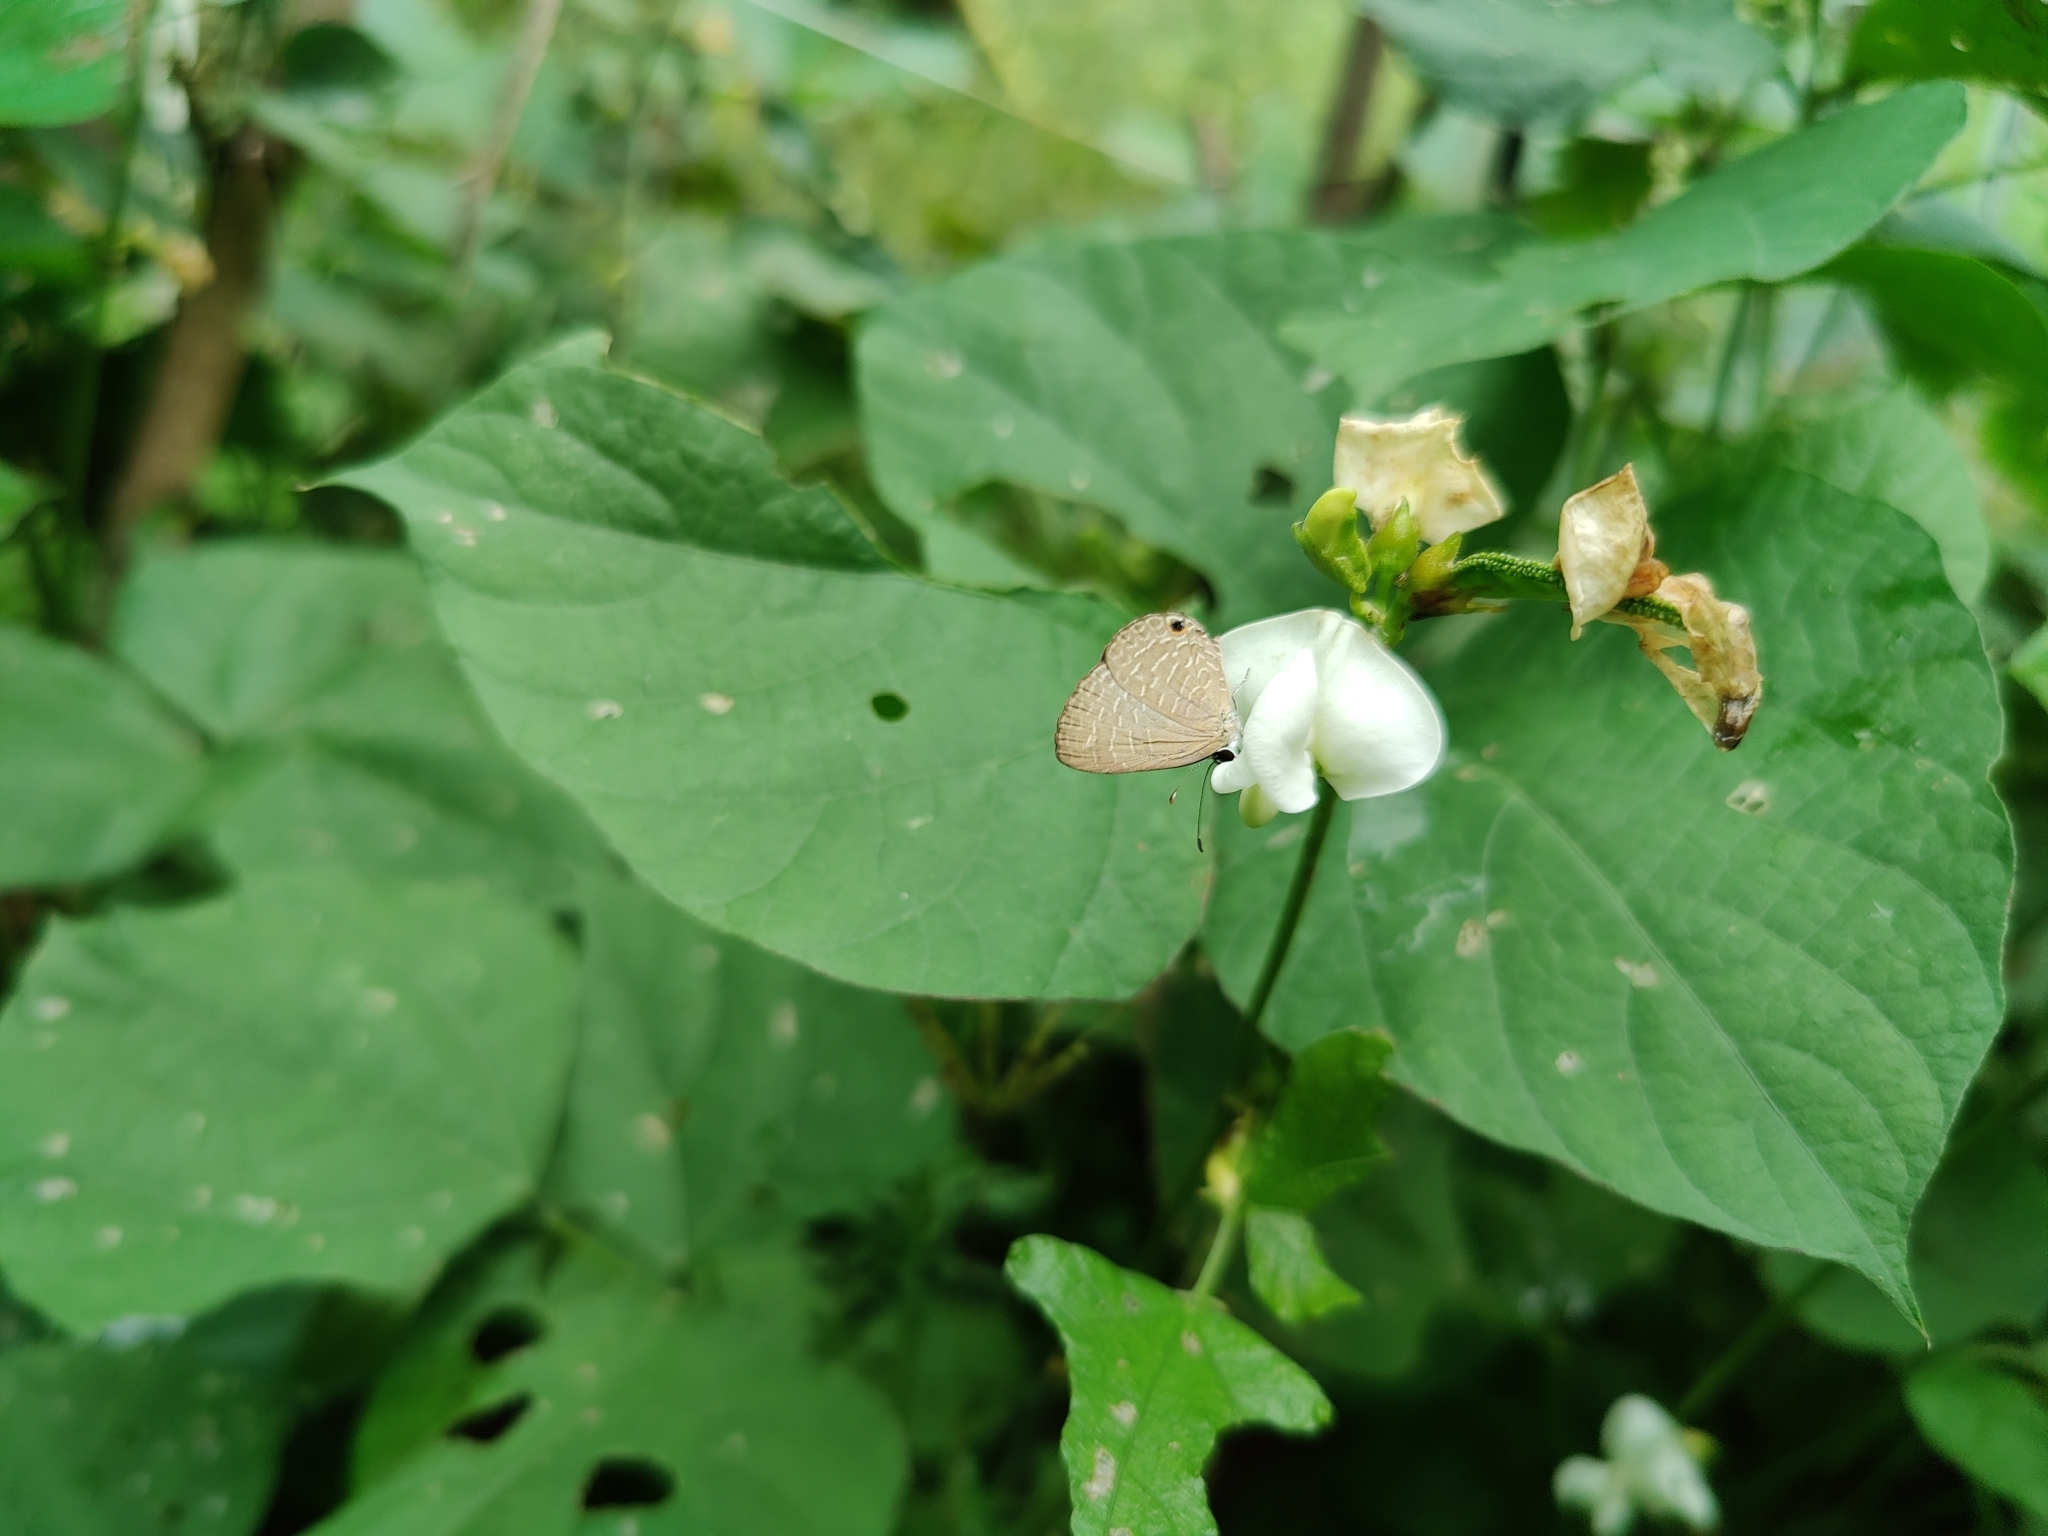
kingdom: Animalia
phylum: Arthropoda
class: Insecta
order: Lepidoptera
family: Lycaenidae
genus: Jamides
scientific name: Jamides bochus
